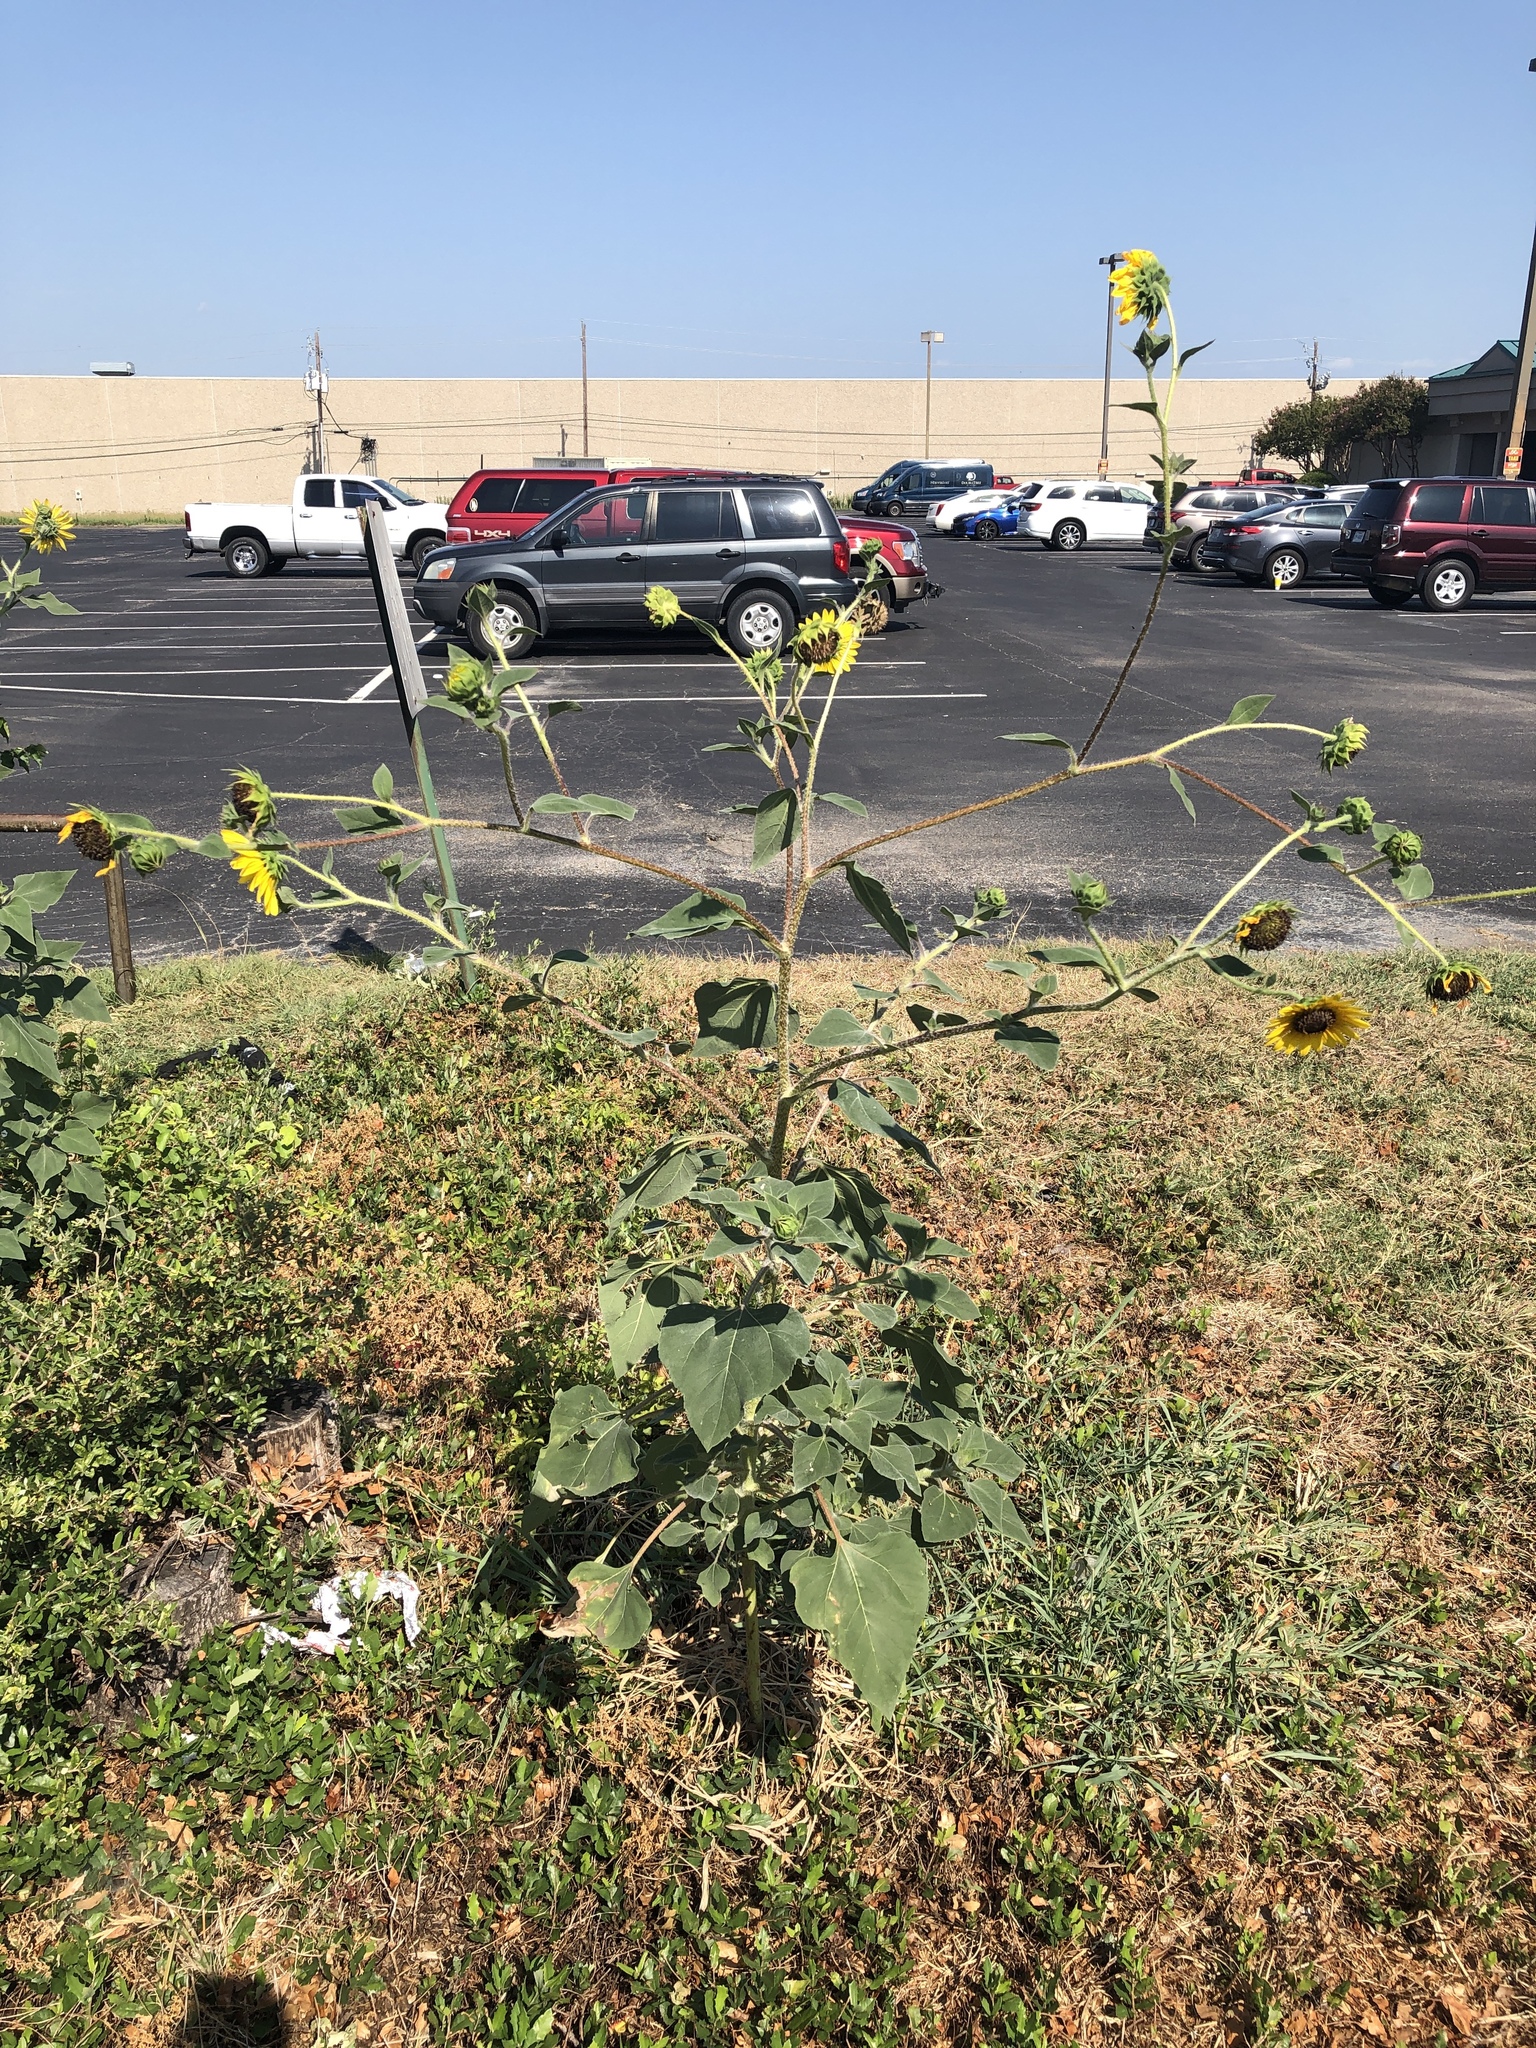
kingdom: Plantae
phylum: Tracheophyta
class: Magnoliopsida
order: Asterales
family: Asteraceae
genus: Helianthus
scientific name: Helianthus annuus
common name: Sunflower
